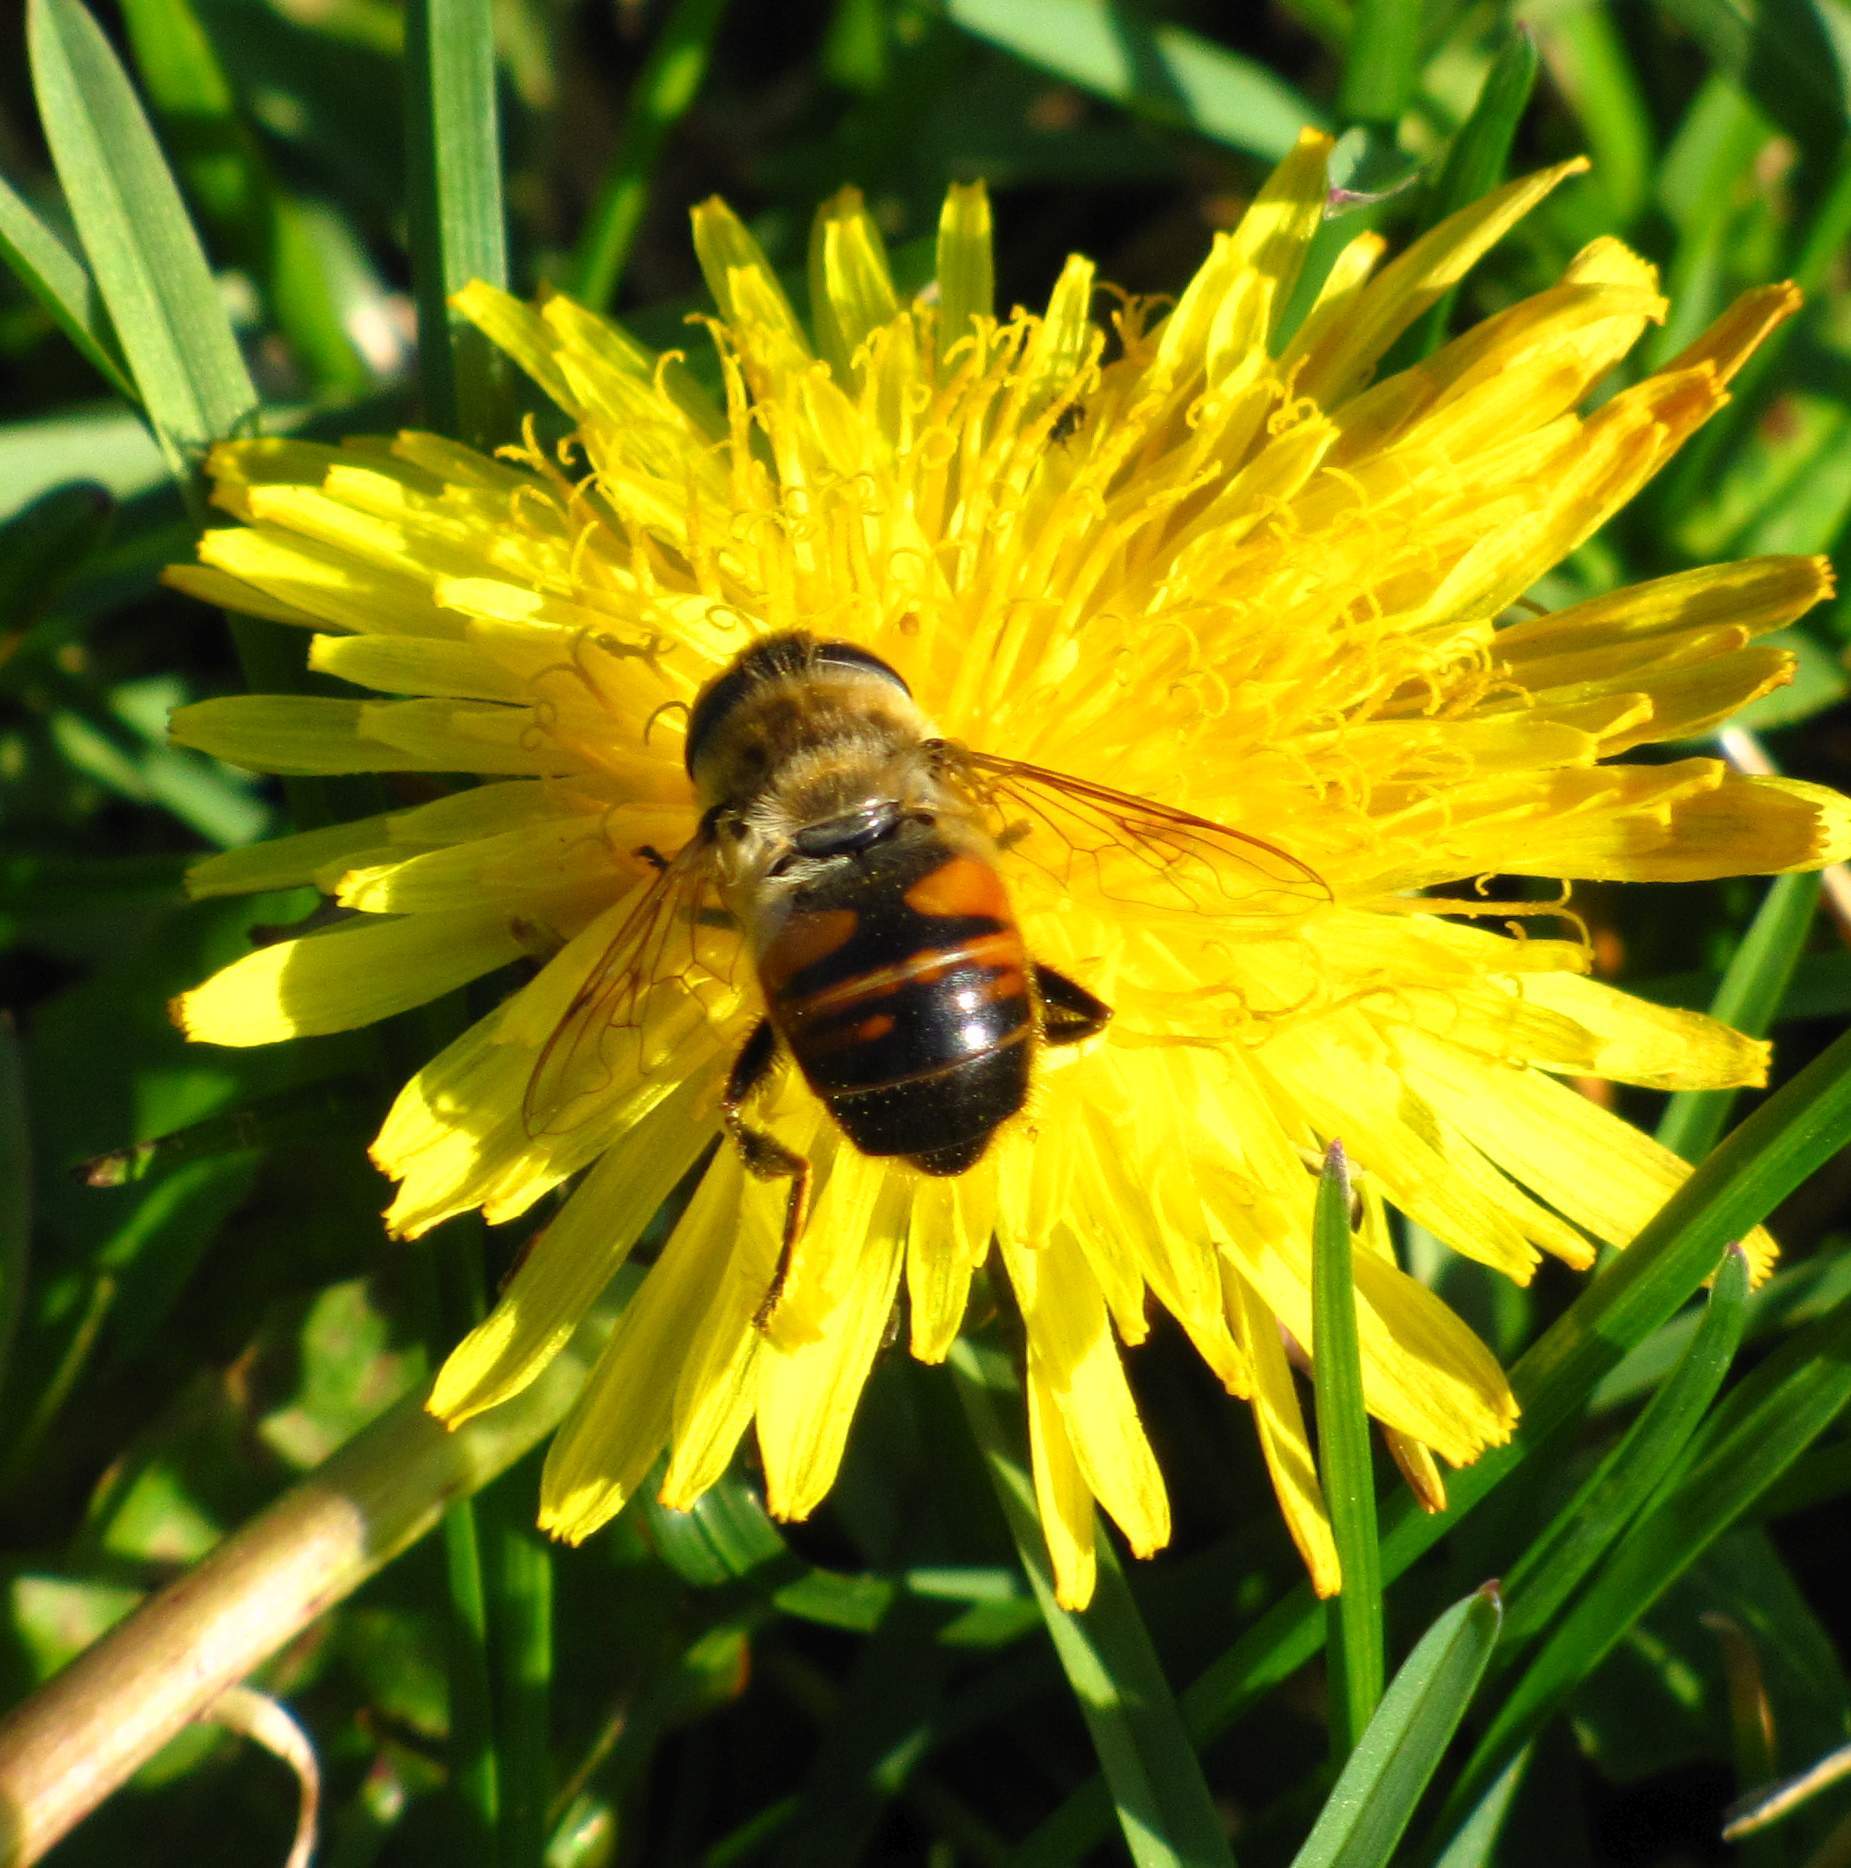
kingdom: Animalia
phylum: Arthropoda
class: Insecta
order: Diptera
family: Syrphidae
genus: Eristalis
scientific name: Eristalis tenax
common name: Drone fly
